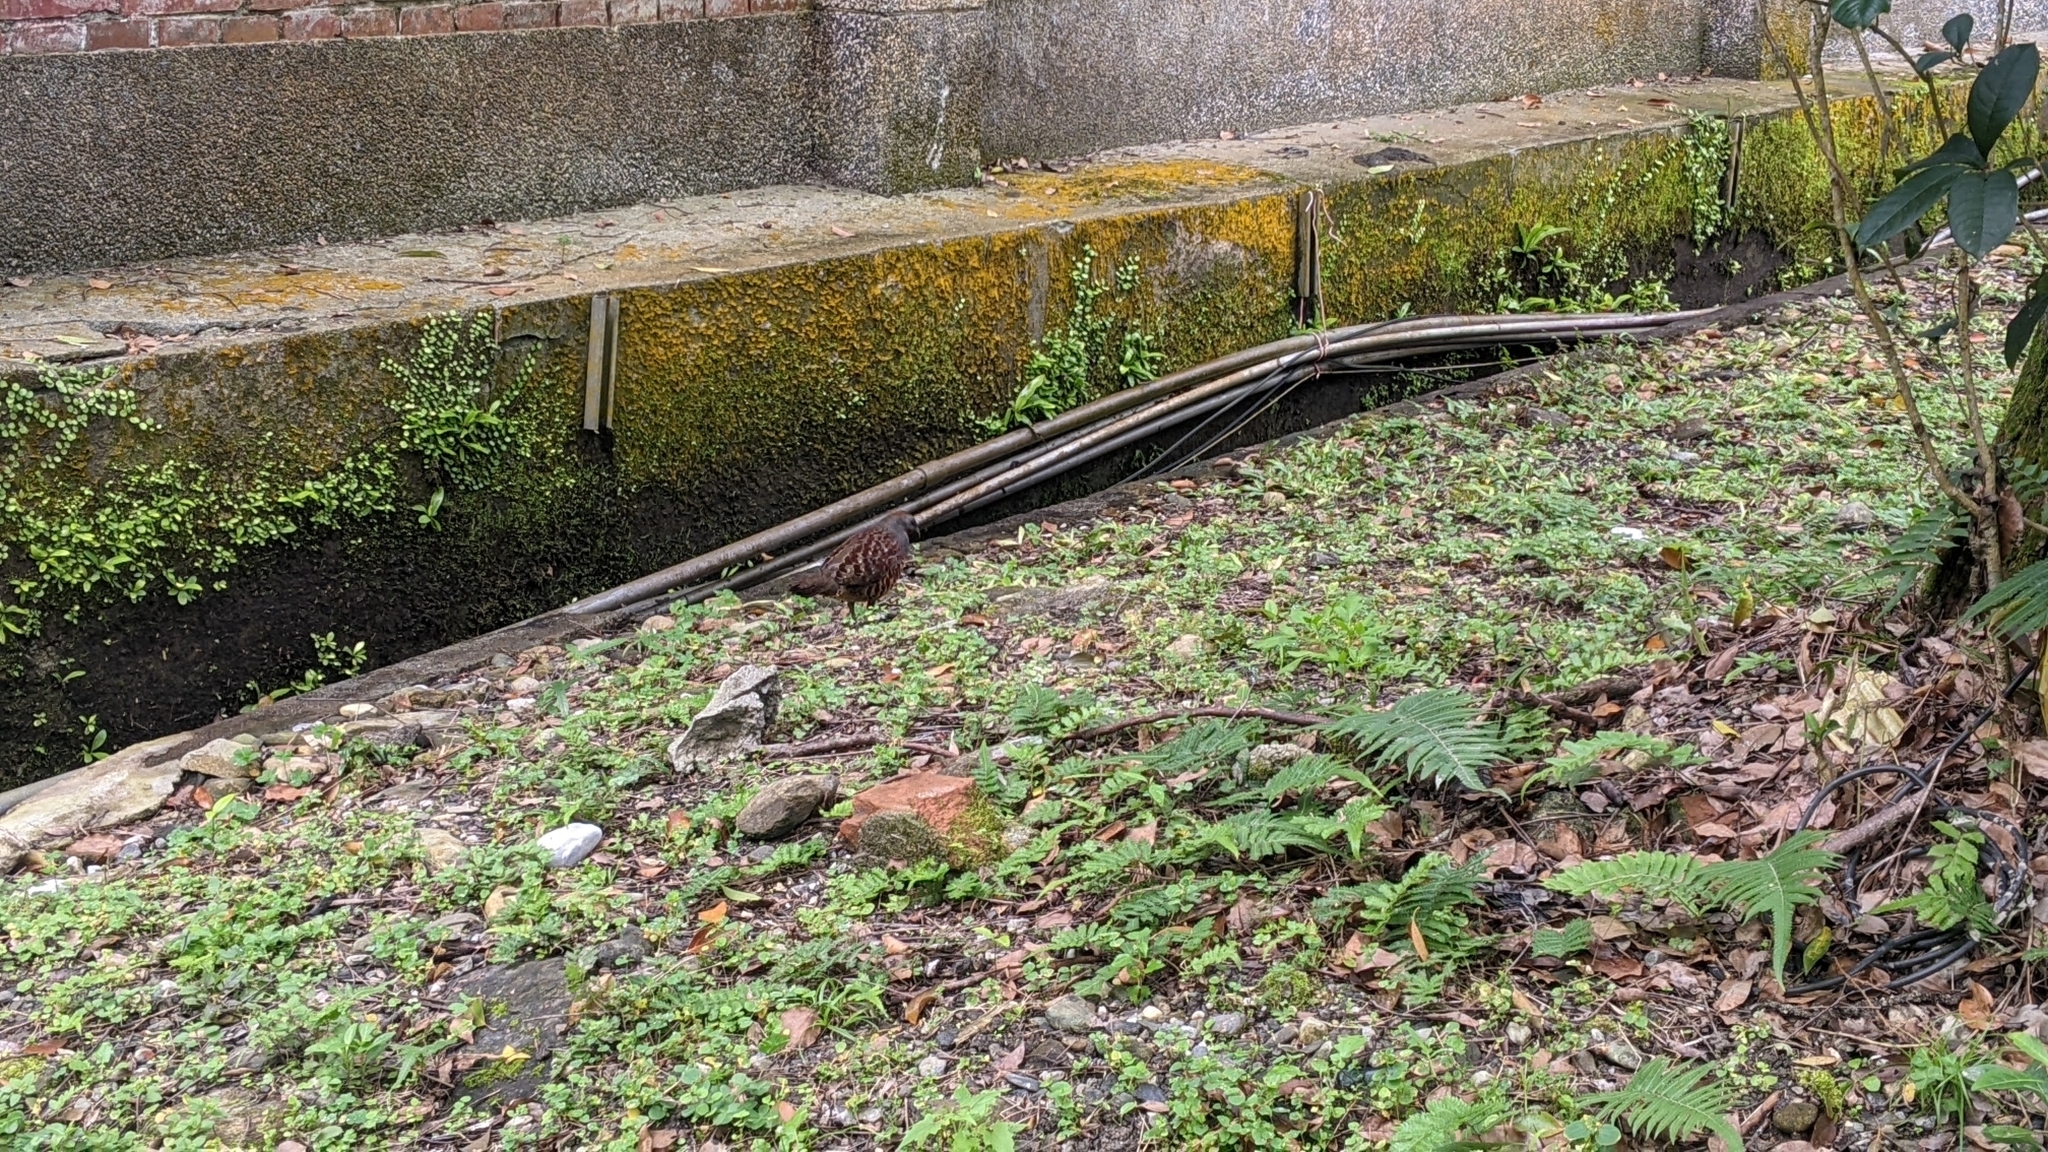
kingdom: Animalia
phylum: Chordata
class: Aves
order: Galliformes
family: Phasianidae
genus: Bambusicola
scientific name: Bambusicola sonorivox
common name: Taiwan bamboo-partridge
